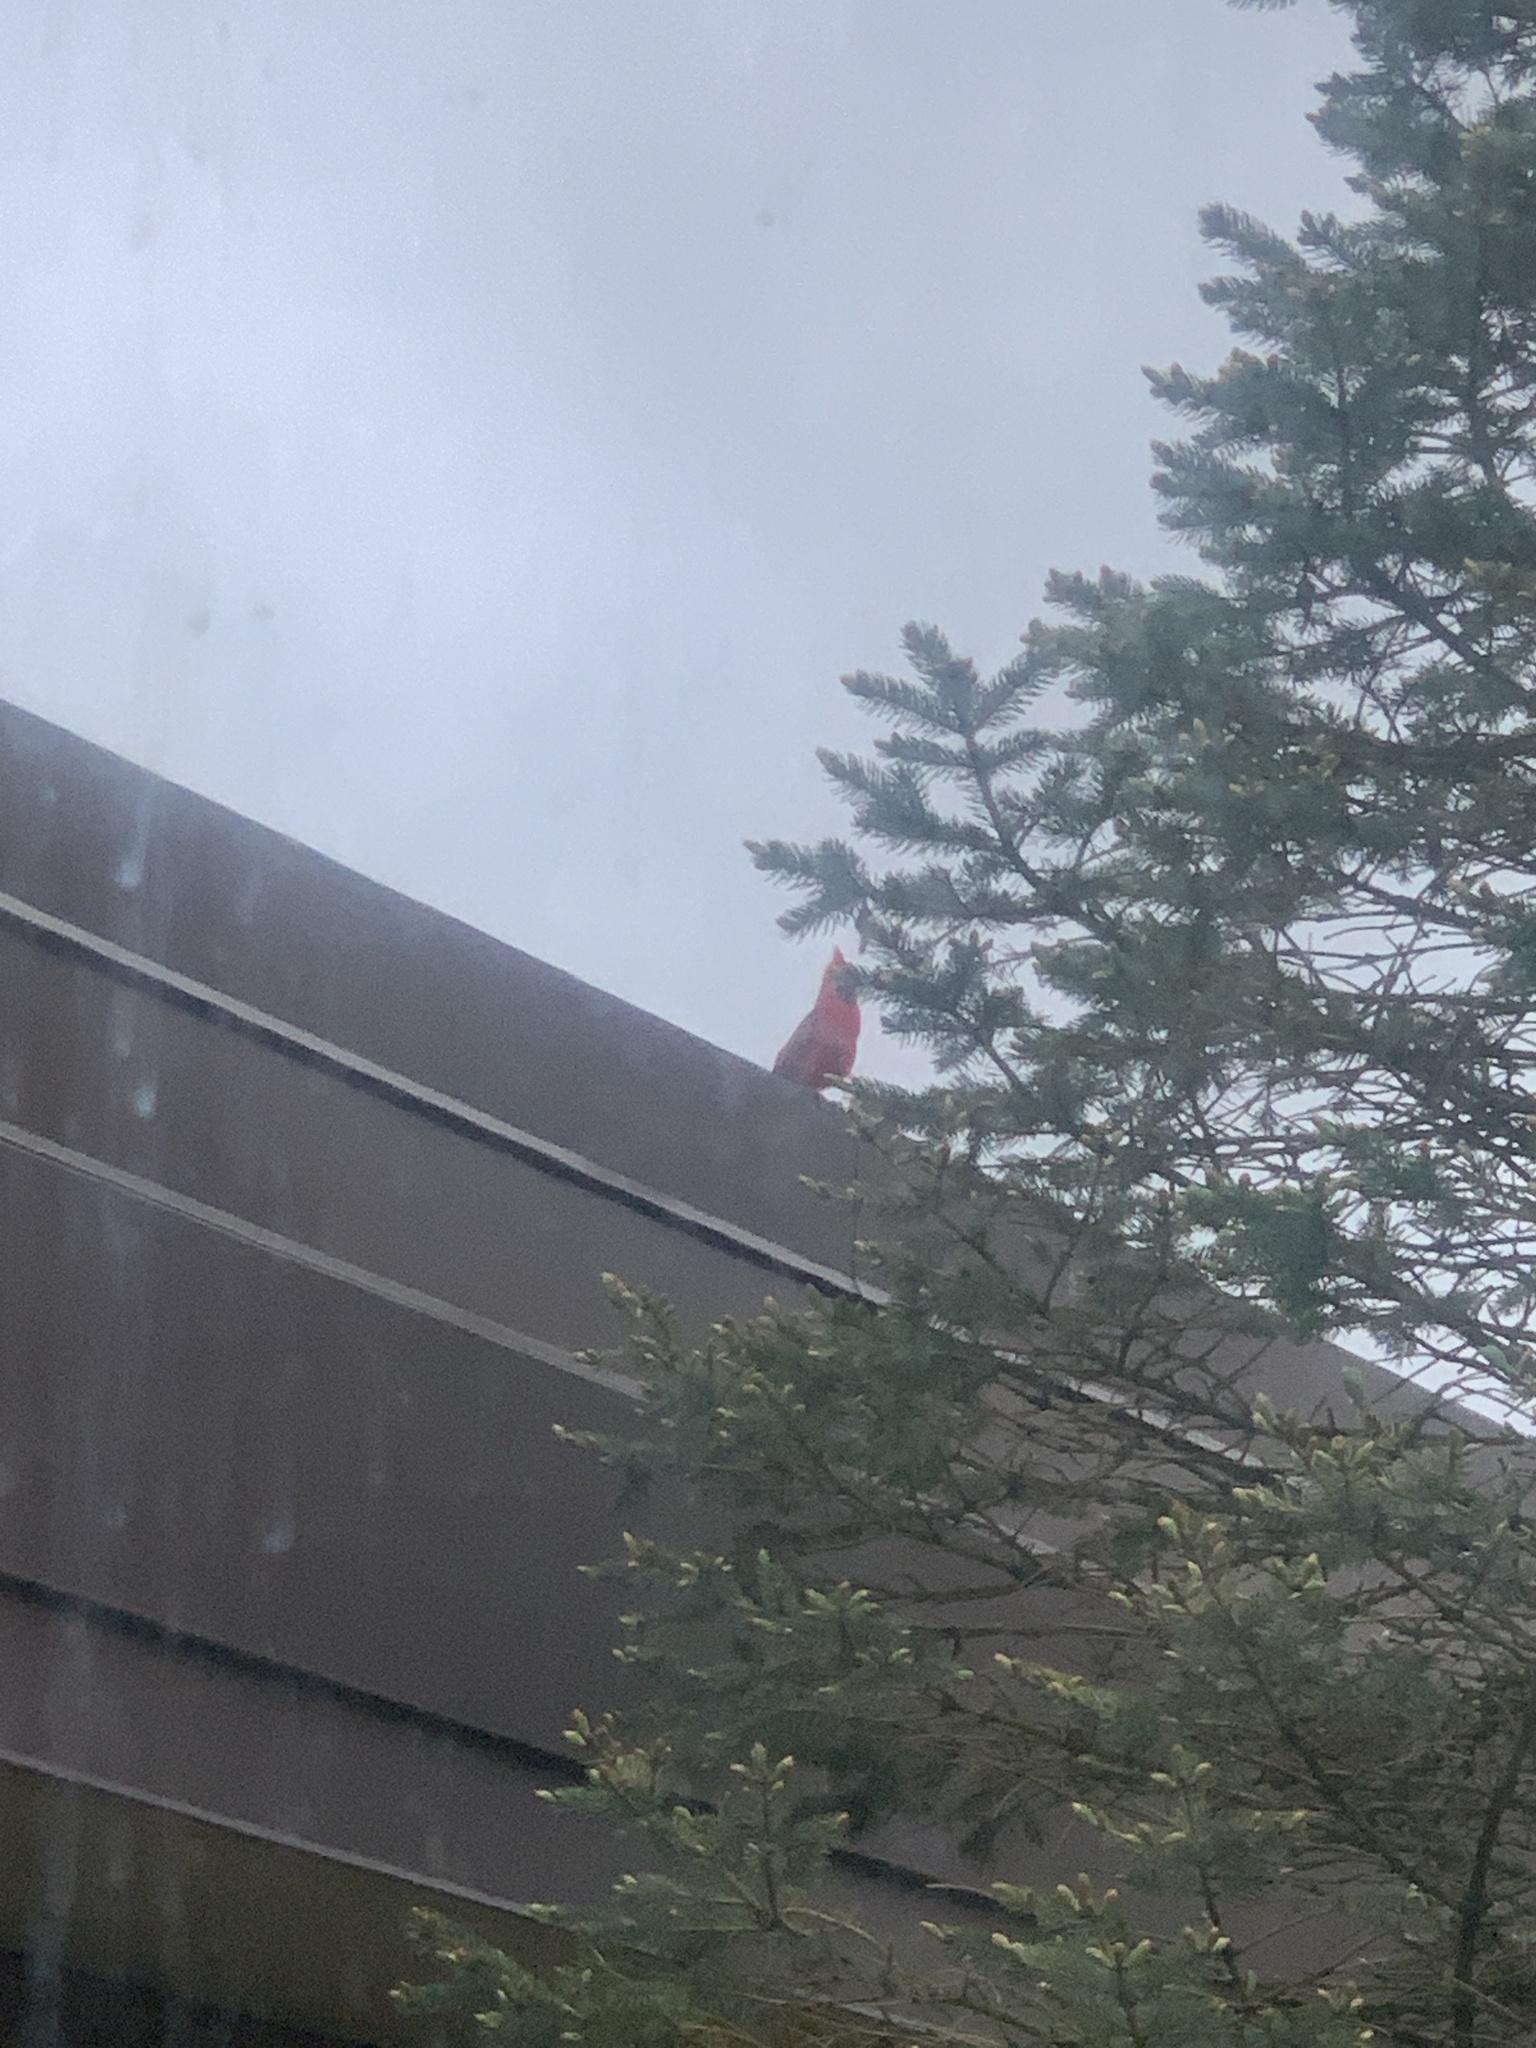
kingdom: Animalia
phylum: Chordata
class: Aves
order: Passeriformes
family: Cardinalidae
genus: Cardinalis
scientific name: Cardinalis cardinalis
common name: Northern cardinal
